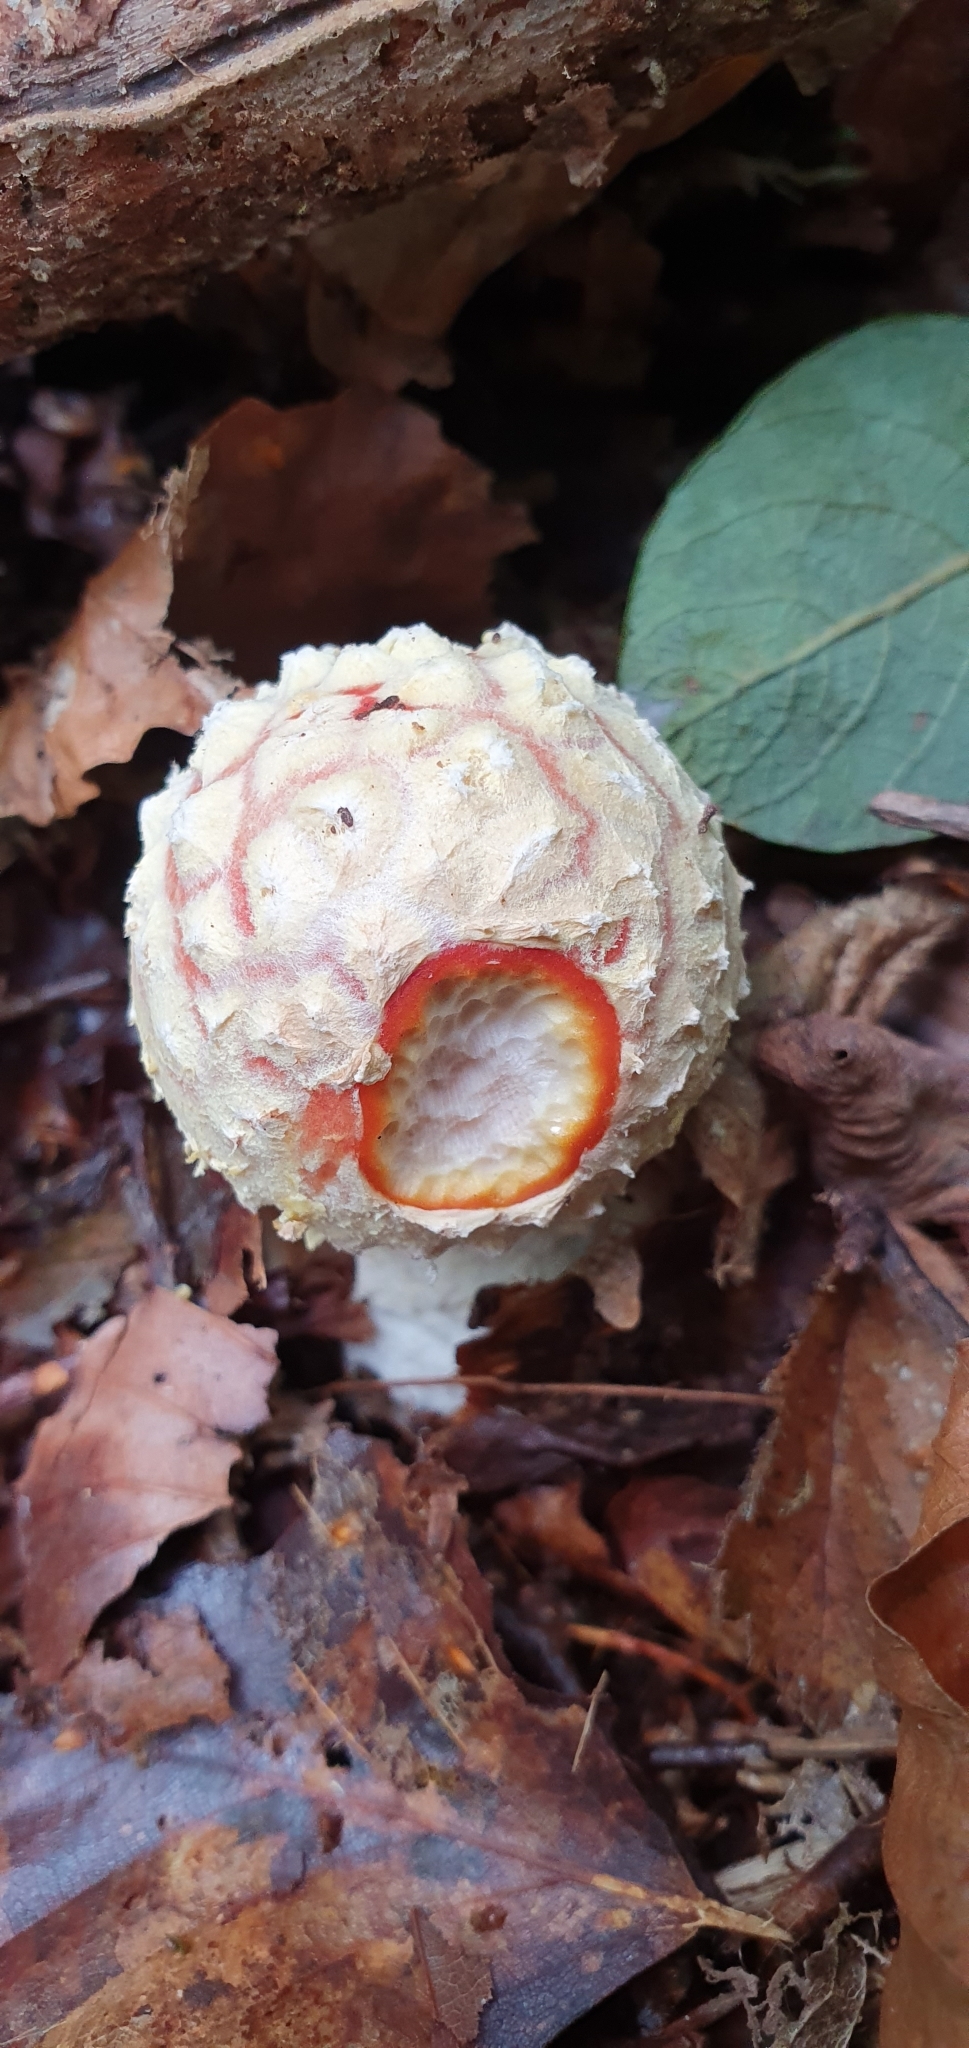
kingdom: Fungi
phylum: Basidiomycota
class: Agaricomycetes
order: Agaricales
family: Amanitaceae
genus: Amanita
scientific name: Amanita muscaria
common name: Fly agaric
